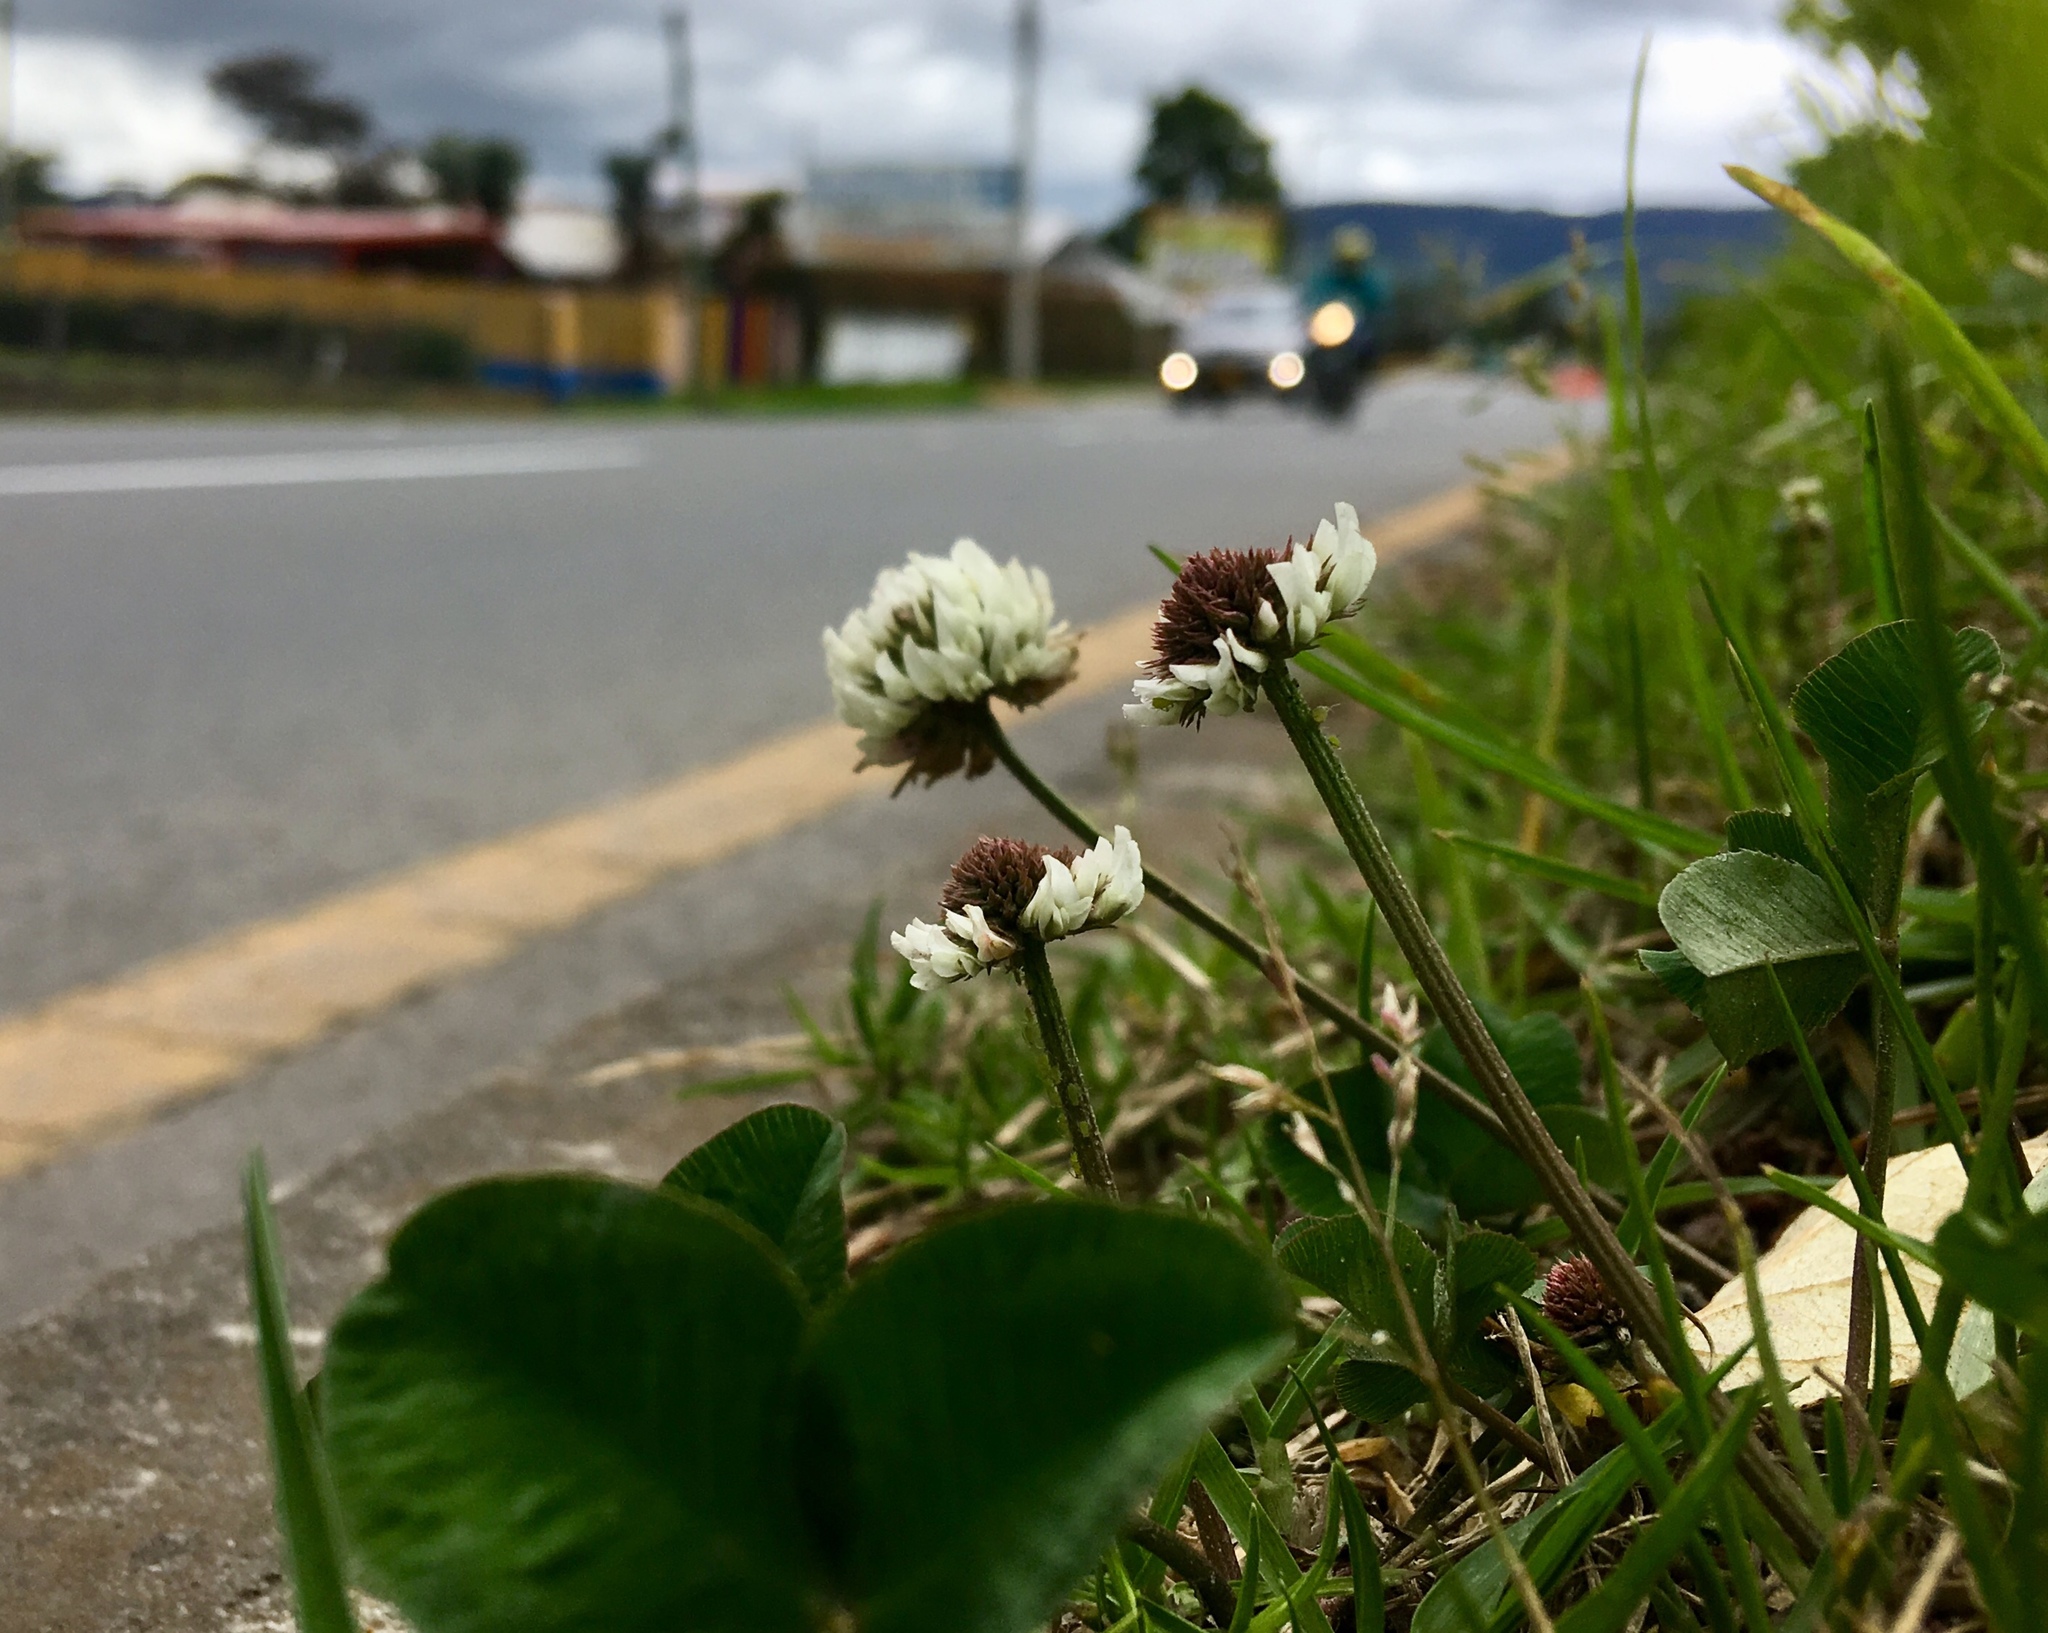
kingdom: Plantae
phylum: Tracheophyta
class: Magnoliopsida
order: Fabales
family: Fabaceae
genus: Trifolium
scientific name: Trifolium repens
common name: White clover
